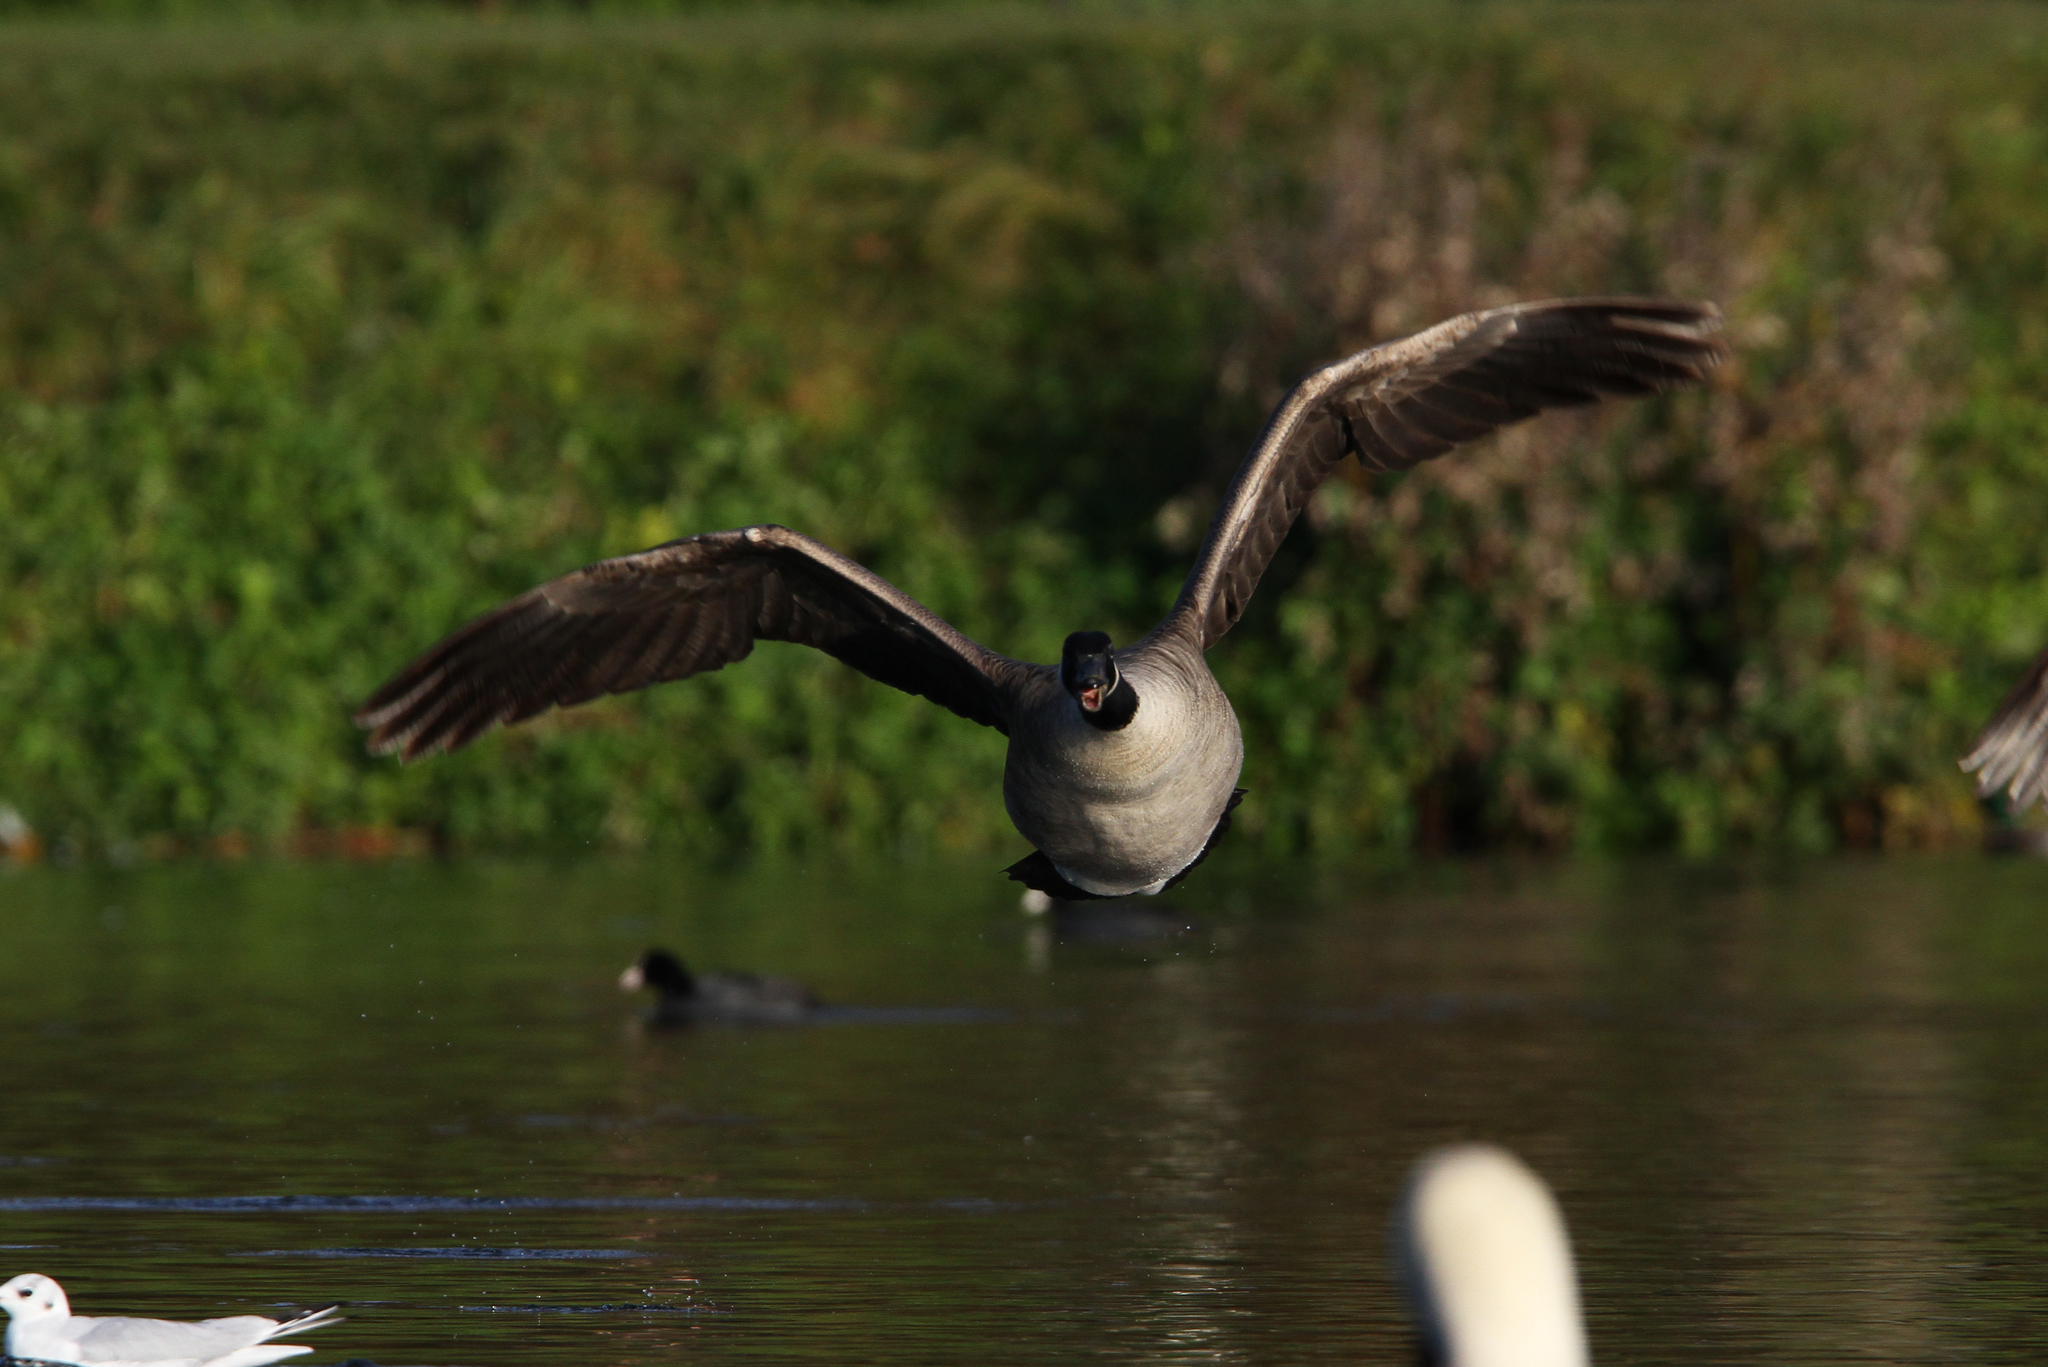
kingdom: Animalia
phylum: Chordata
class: Aves
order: Anseriformes
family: Anatidae
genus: Branta
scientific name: Branta canadensis
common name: Canada goose
